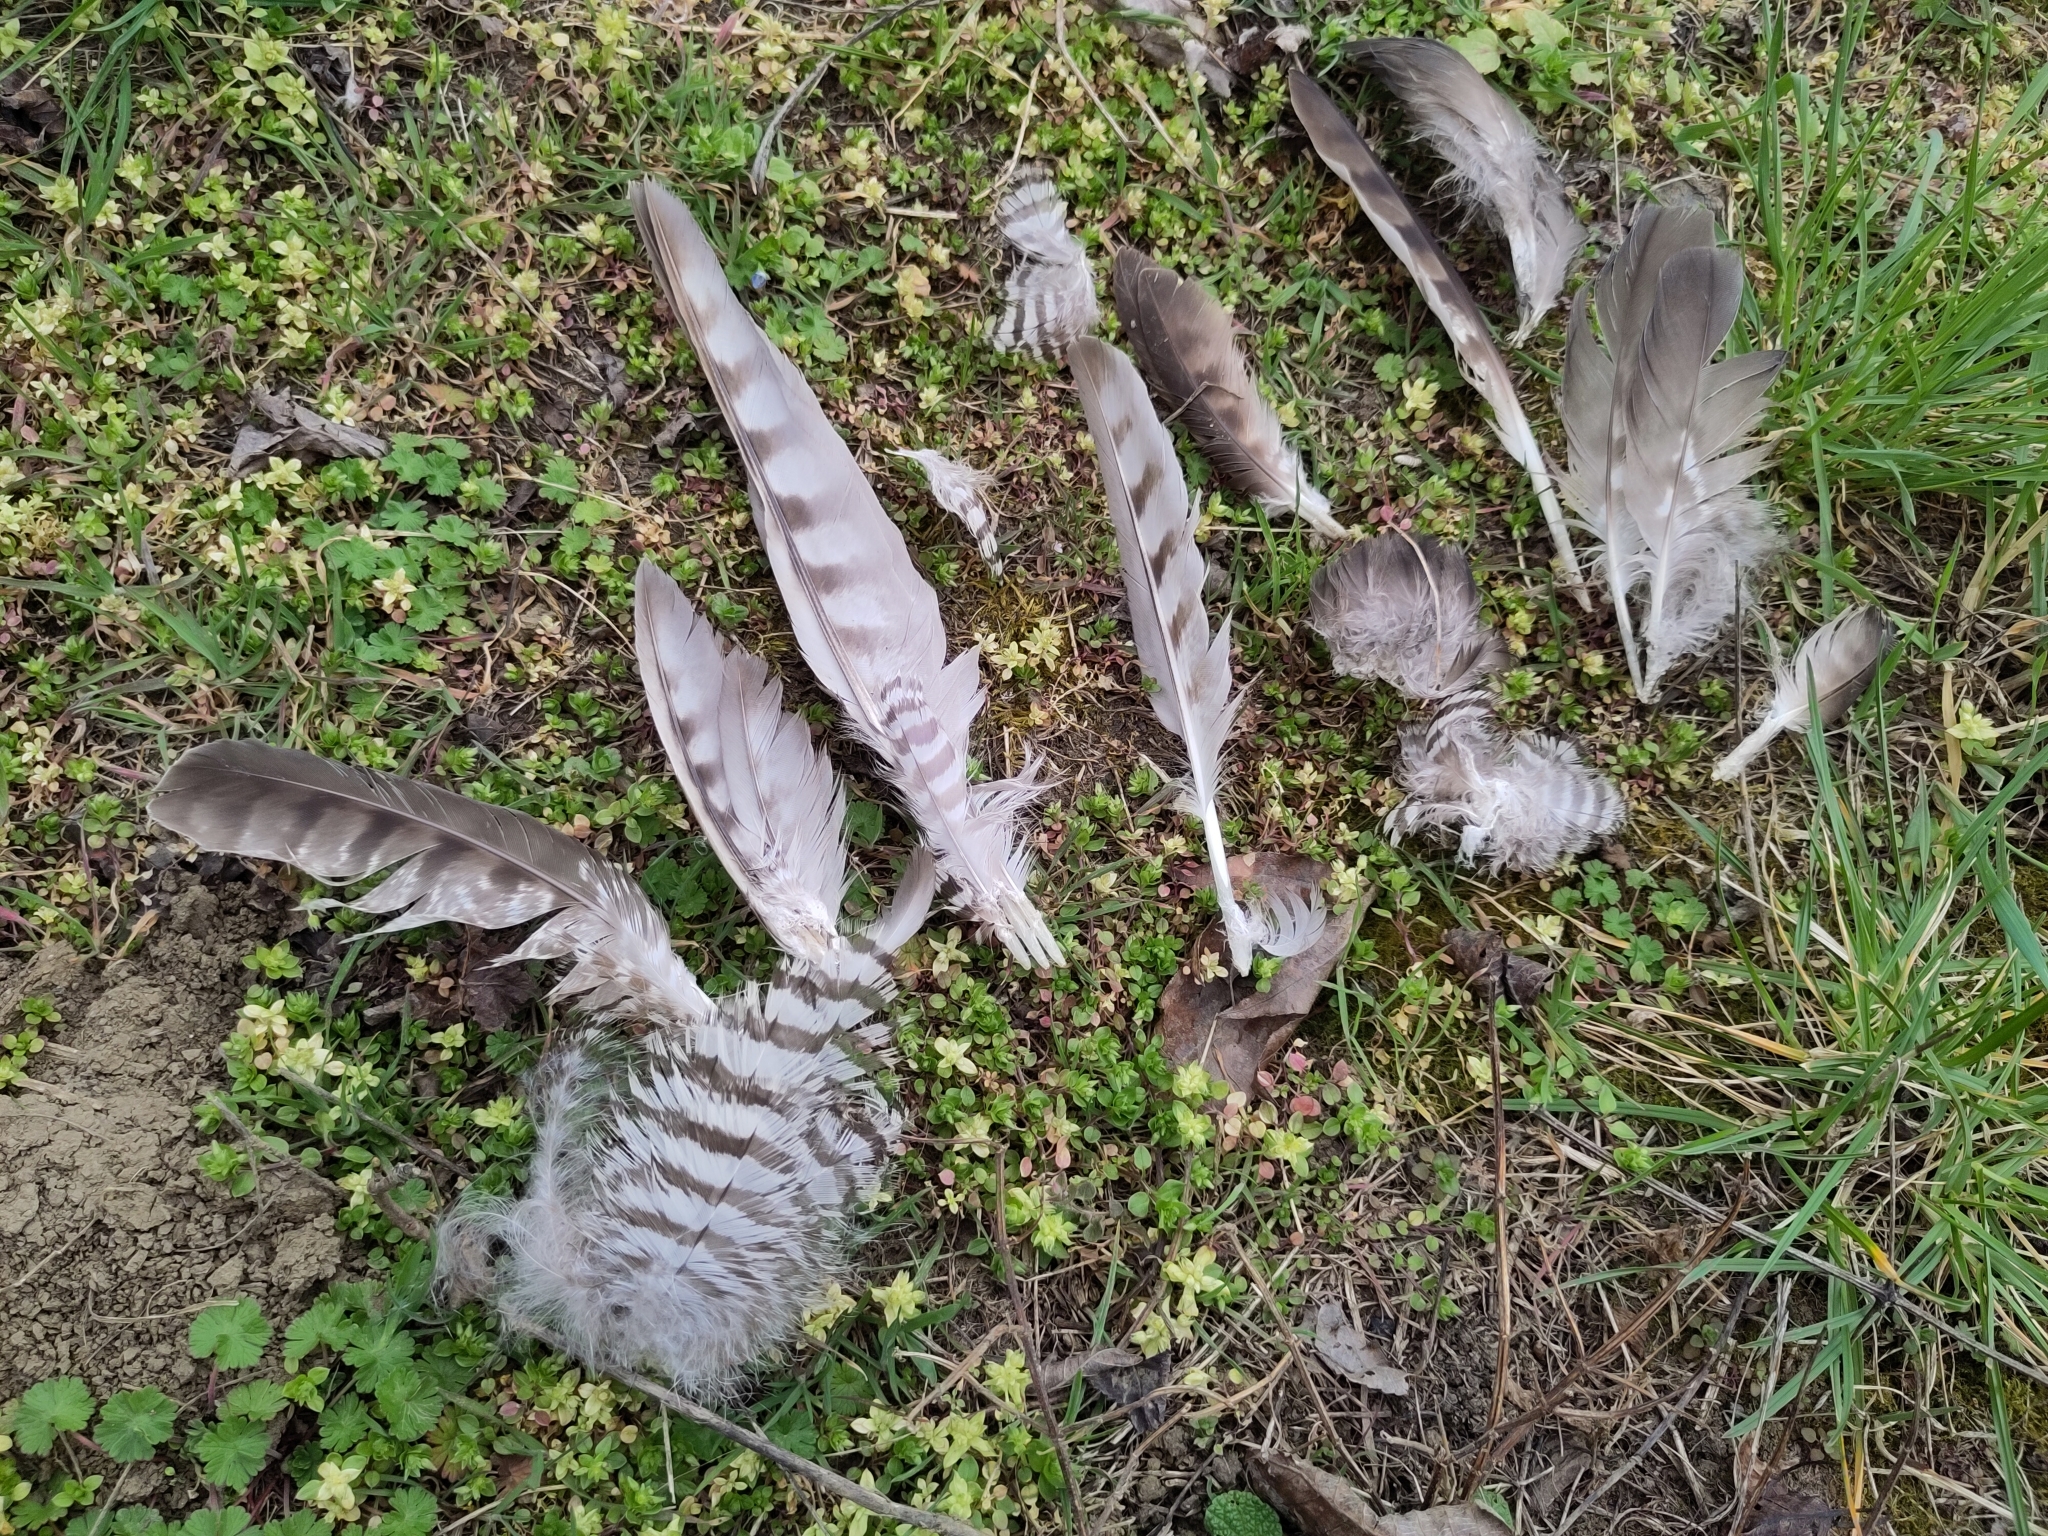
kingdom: Animalia
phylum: Chordata
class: Aves
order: Accipitriformes
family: Accipitridae
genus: Accipiter
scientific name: Accipiter gentilis
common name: Northern goshawk
